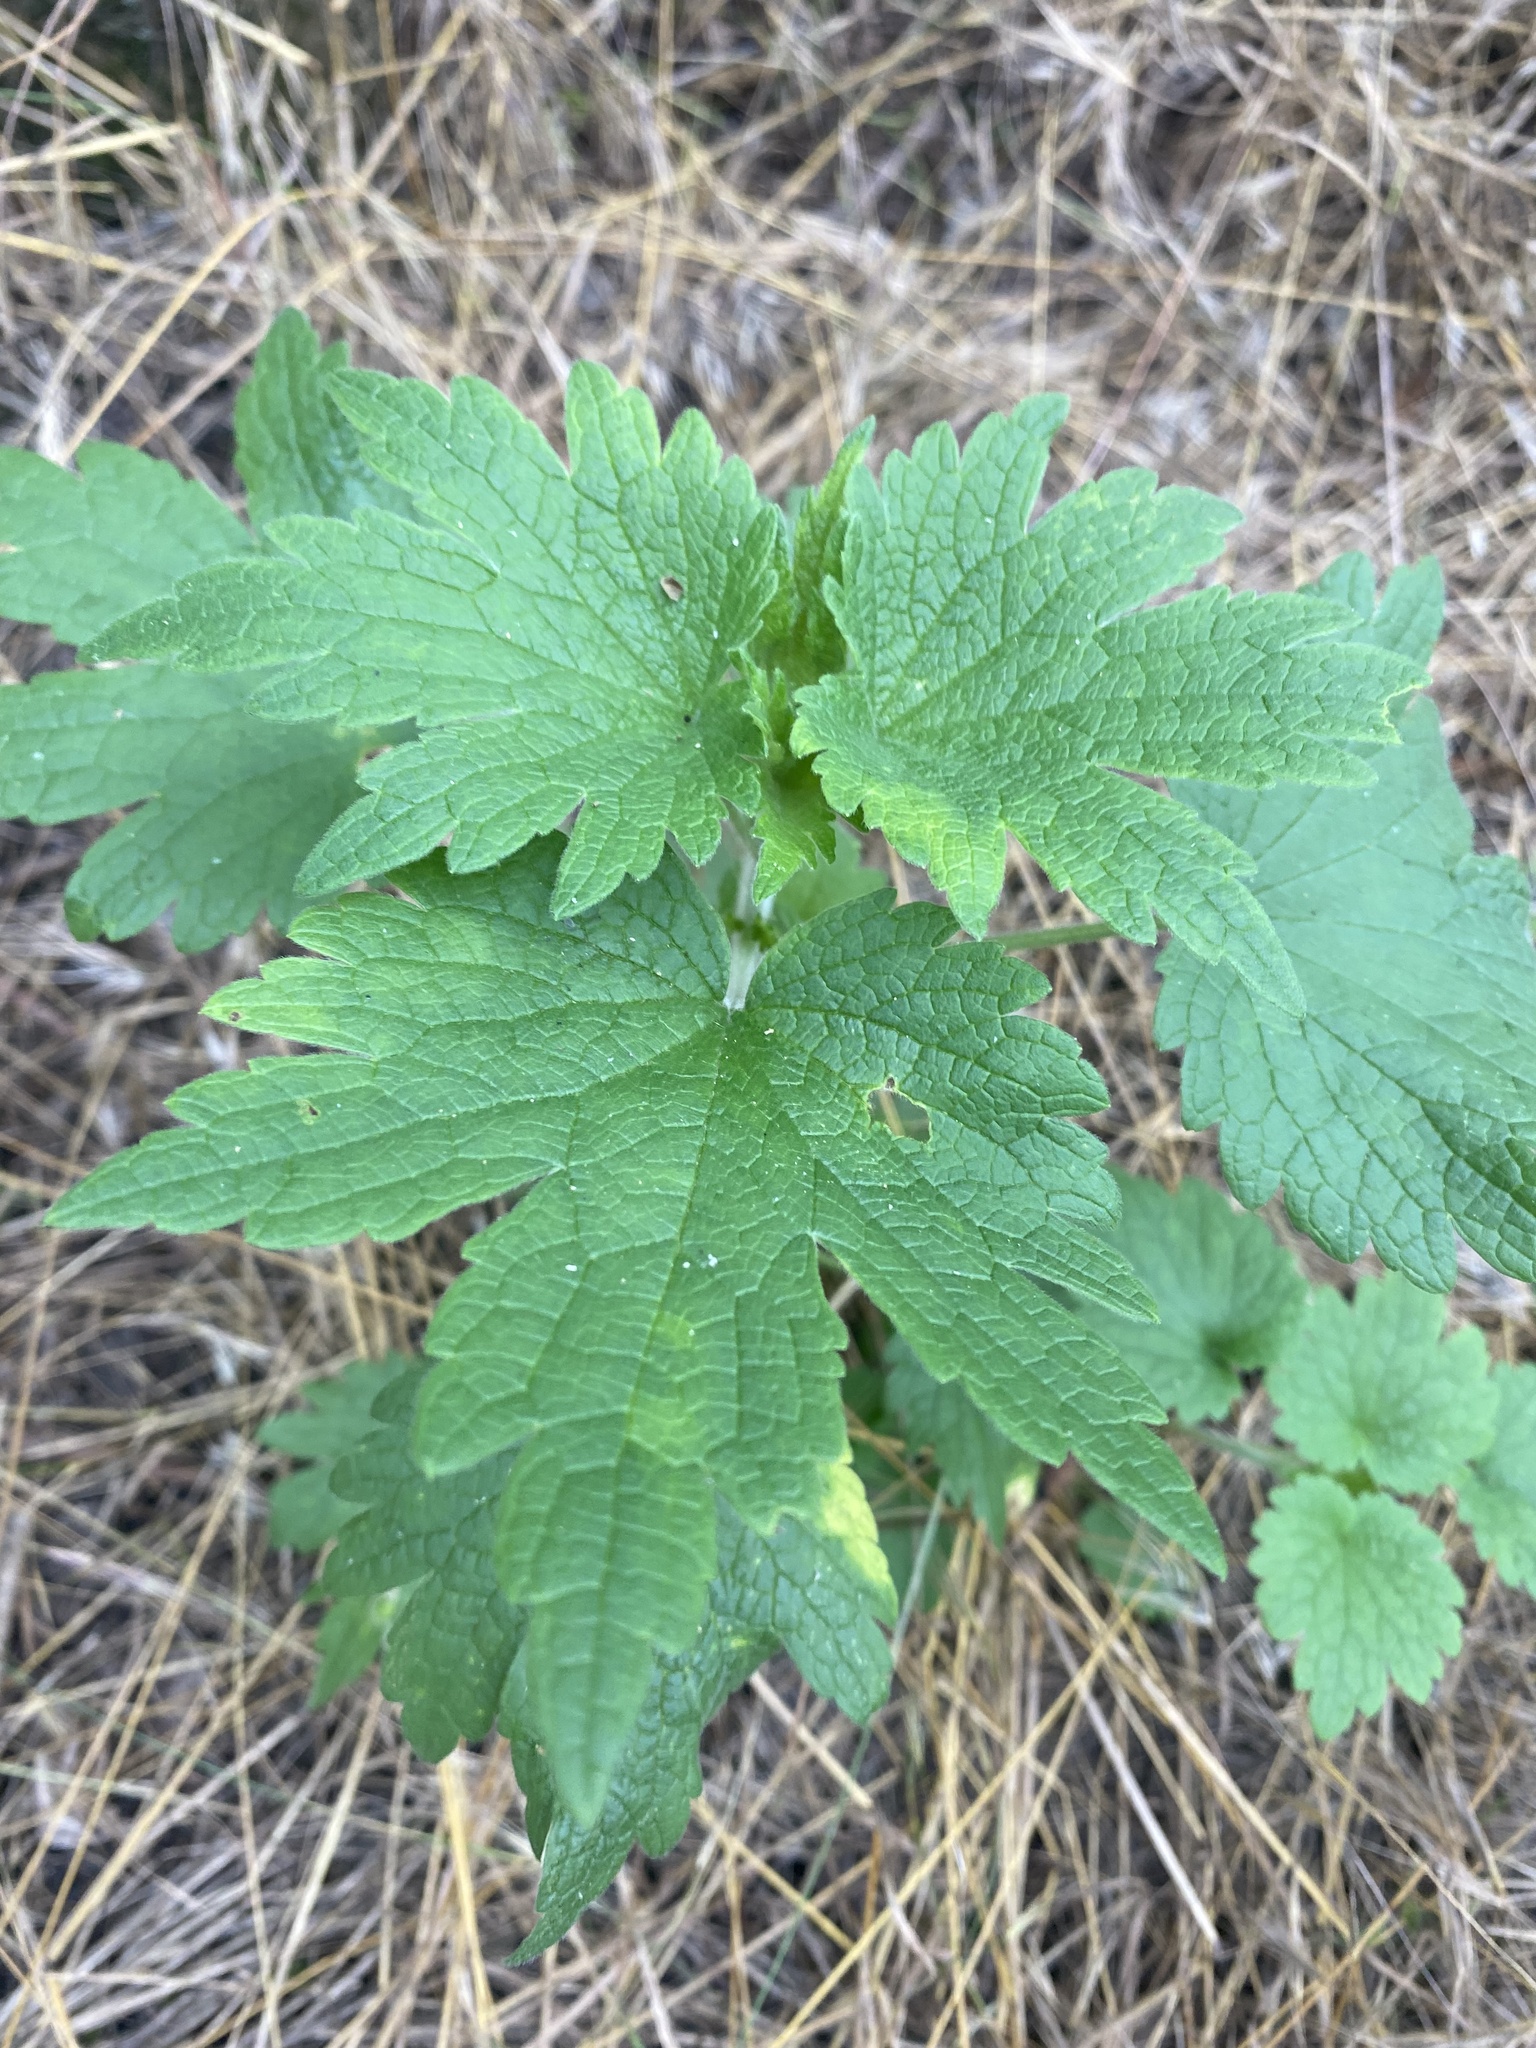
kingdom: Plantae
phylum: Tracheophyta
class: Magnoliopsida
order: Lamiales
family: Lamiaceae
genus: Leonurus
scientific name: Leonurus quinquelobatus
